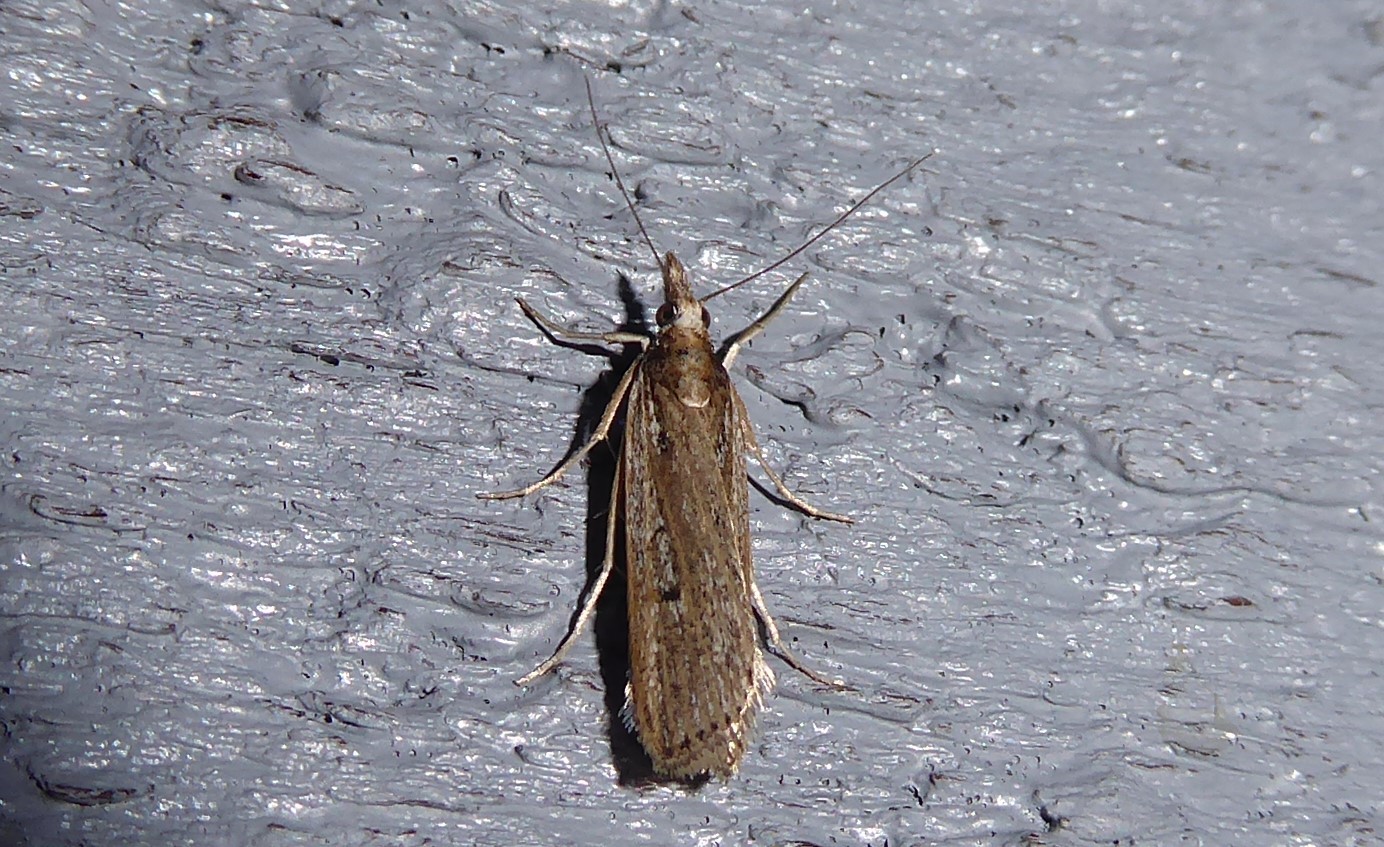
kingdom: Animalia
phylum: Arthropoda
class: Insecta
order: Lepidoptera
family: Crambidae
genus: Eudonia
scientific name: Eudonia sabulosella
